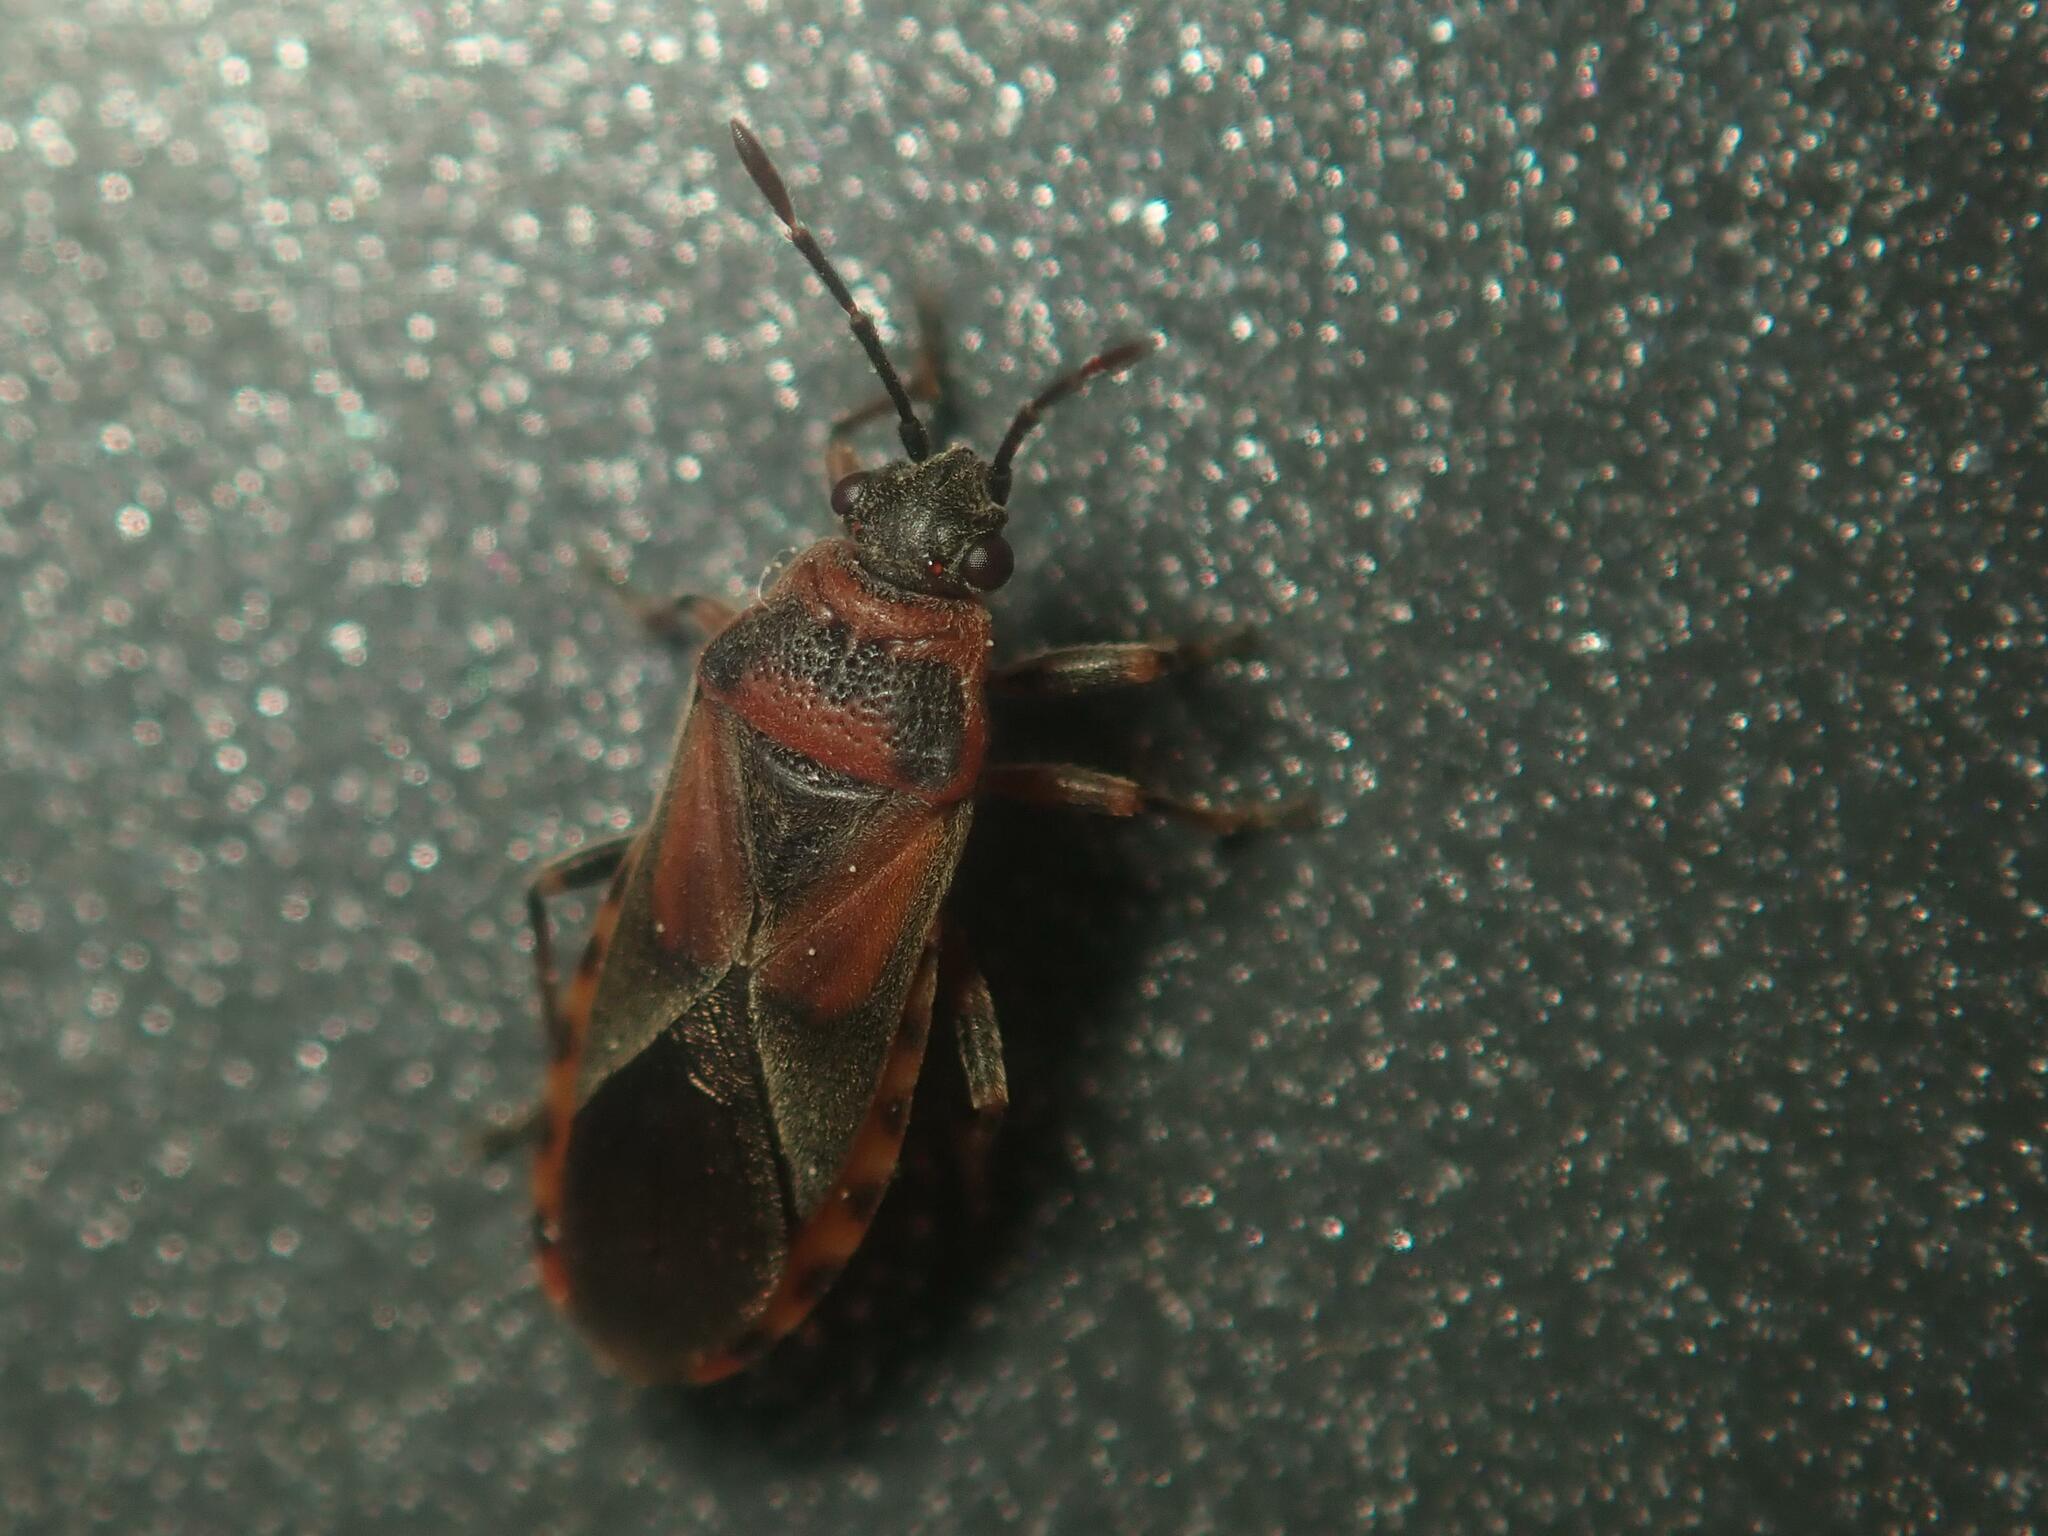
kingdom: Animalia
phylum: Arthropoda
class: Insecta
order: Hemiptera
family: Lygaeidae
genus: Arocatus
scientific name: Arocatus melanocephalus
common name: Lygaeid bug
